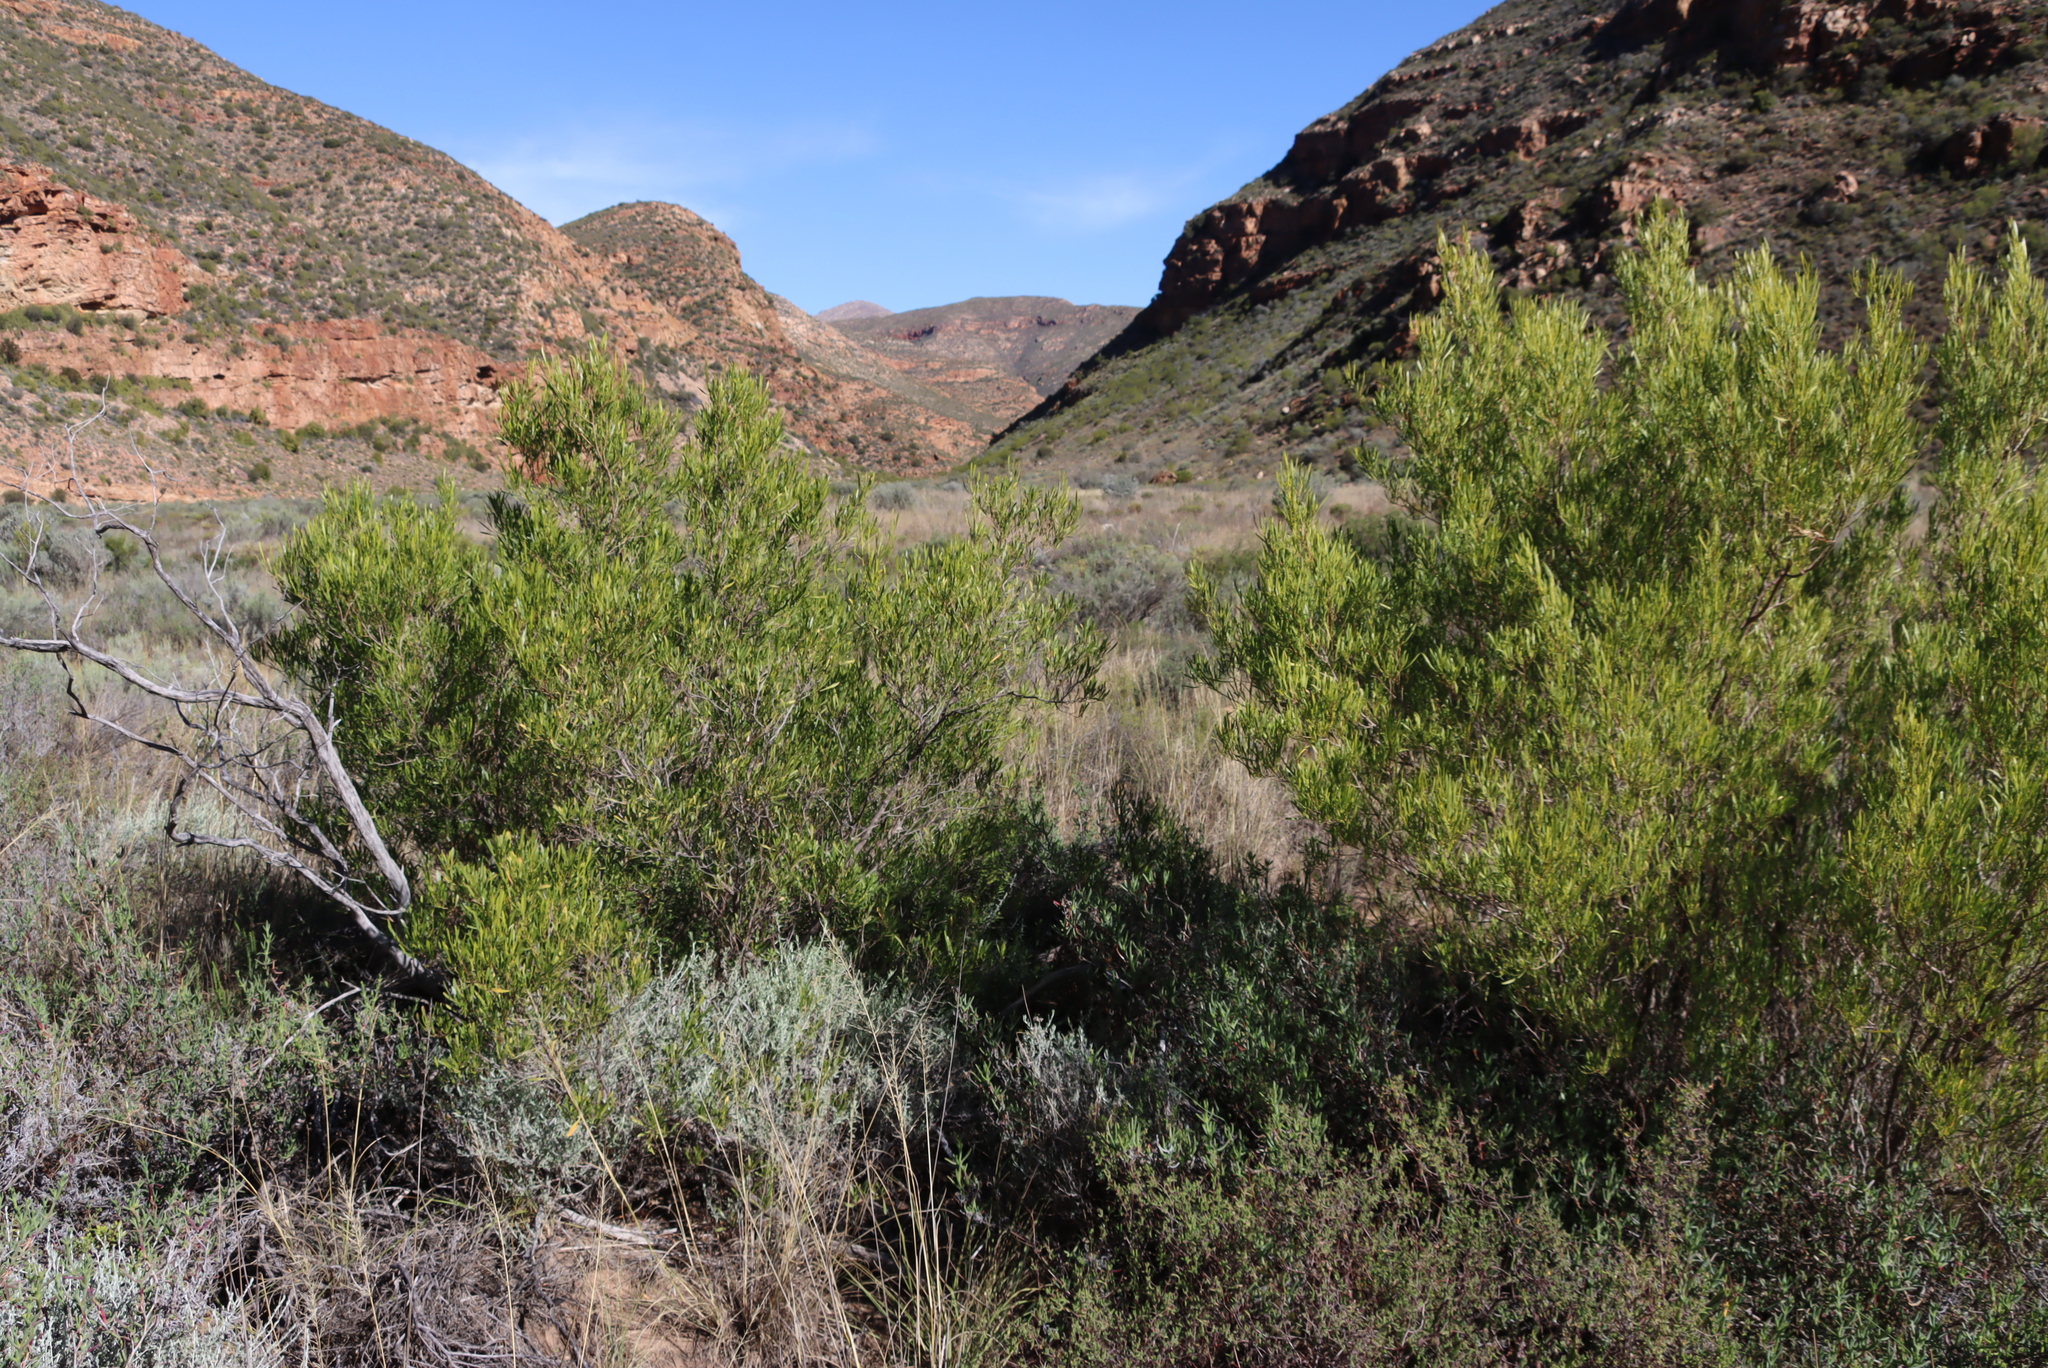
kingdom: Plantae
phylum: Tracheophyta
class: Magnoliopsida
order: Sapindales
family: Sapindaceae
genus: Dodonaea
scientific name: Dodonaea viscosa
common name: Hopbush
